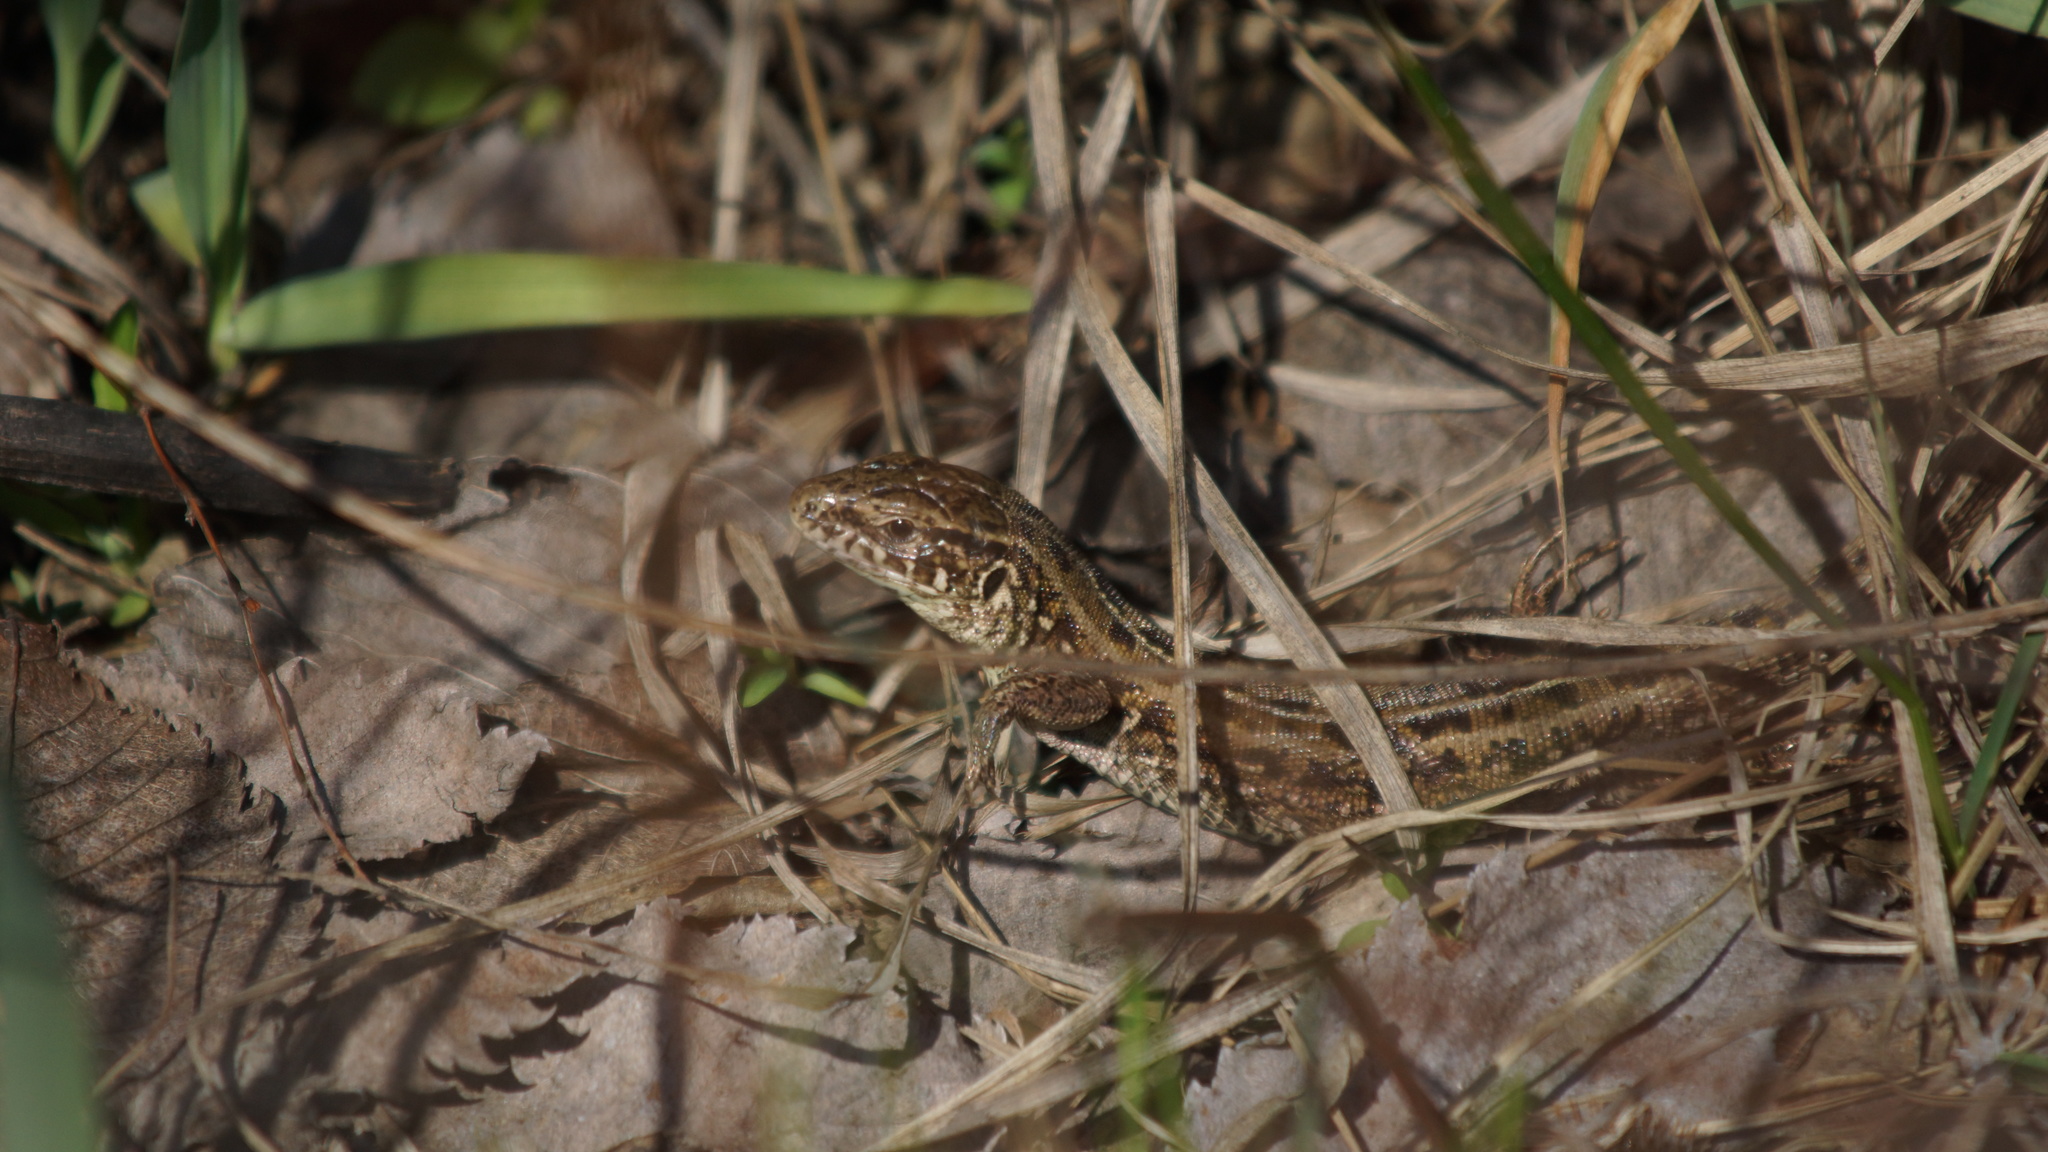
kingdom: Animalia
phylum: Chordata
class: Squamata
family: Lacertidae
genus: Lacerta
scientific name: Lacerta agilis
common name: Sand lizard
